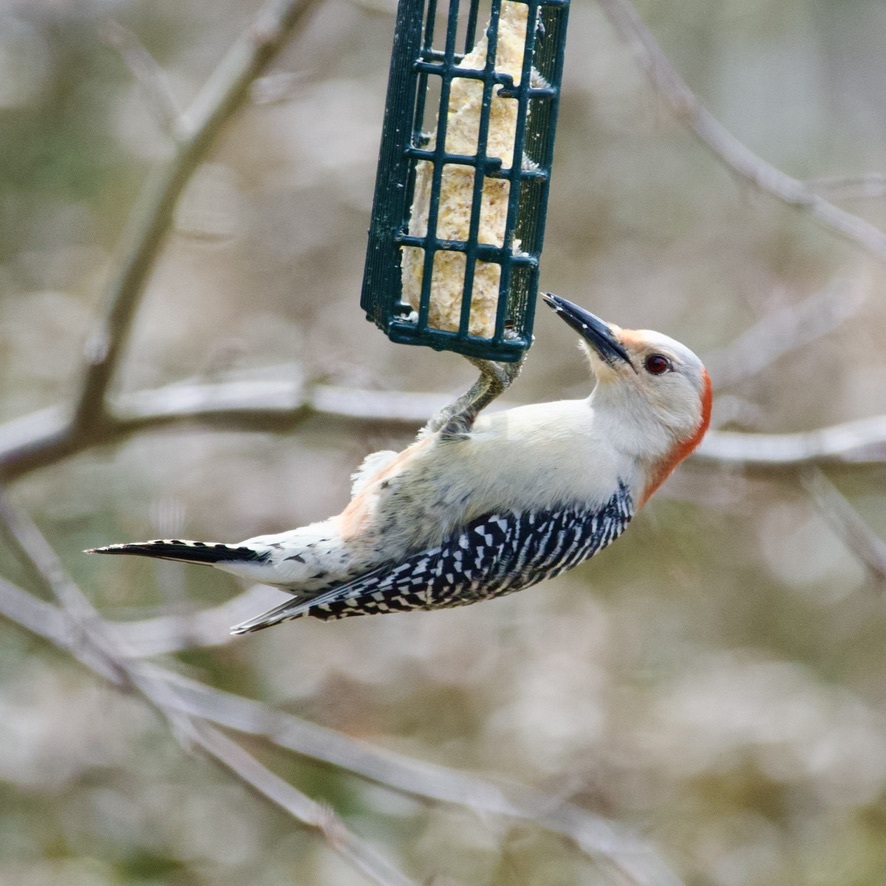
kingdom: Animalia
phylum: Chordata
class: Aves
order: Piciformes
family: Picidae
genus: Melanerpes
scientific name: Melanerpes carolinus
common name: Red-bellied woodpecker
